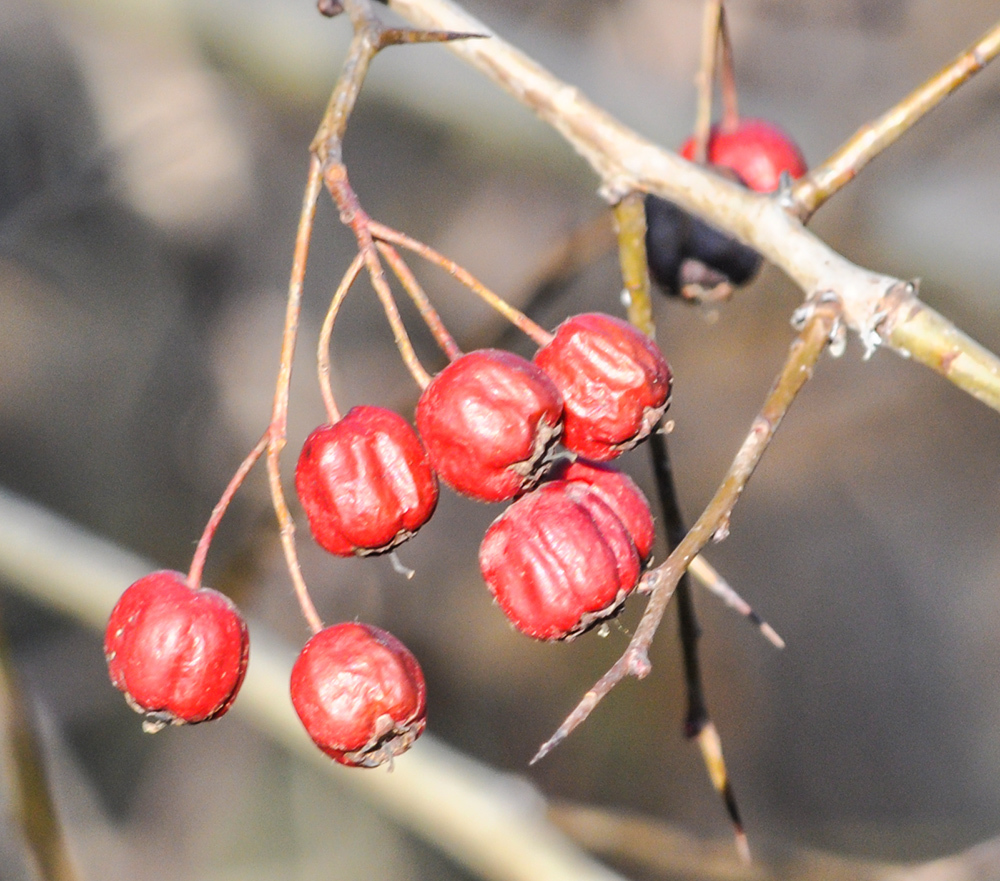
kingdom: Plantae
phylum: Tracheophyta
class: Magnoliopsida
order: Rosales
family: Rosaceae
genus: Crataegus
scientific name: Crataegus monogyna
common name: Hawthorn
